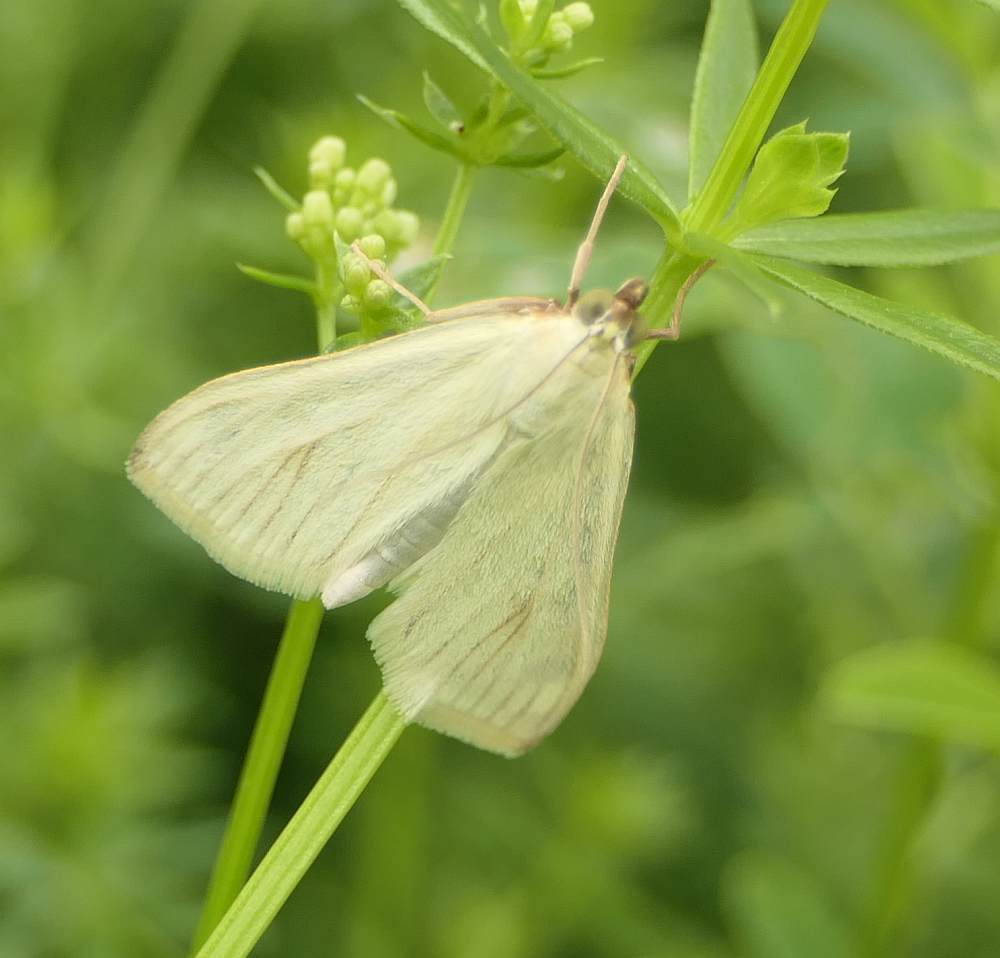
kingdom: Animalia
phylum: Arthropoda
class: Insecta
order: Lepidoptera
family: Crambidae
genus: Sitochroa
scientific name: Sitochroa palealis
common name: Greenish-yellow sitochroa moth
